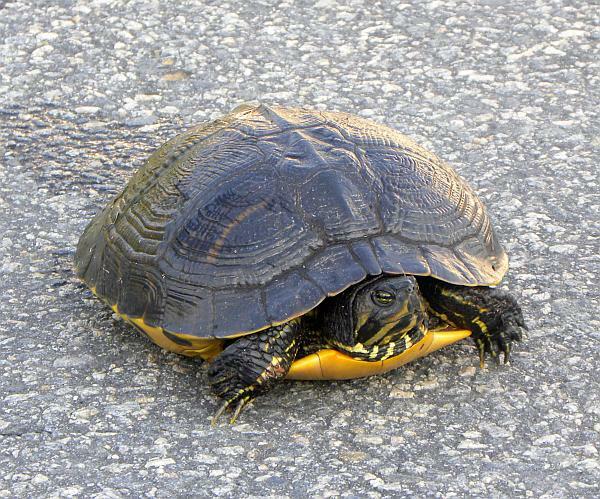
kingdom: Animalia
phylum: Chordata
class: Testudines
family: Emydidae
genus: Trachemys
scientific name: Trachemys scripta
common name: Slider
